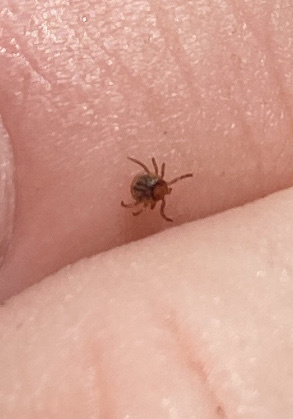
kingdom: Animalia
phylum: Arthropoda
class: Arachnida
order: Ixodida
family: Ixodidae
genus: Amblyomma
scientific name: Amblyomma americanum
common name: Lone star tick
